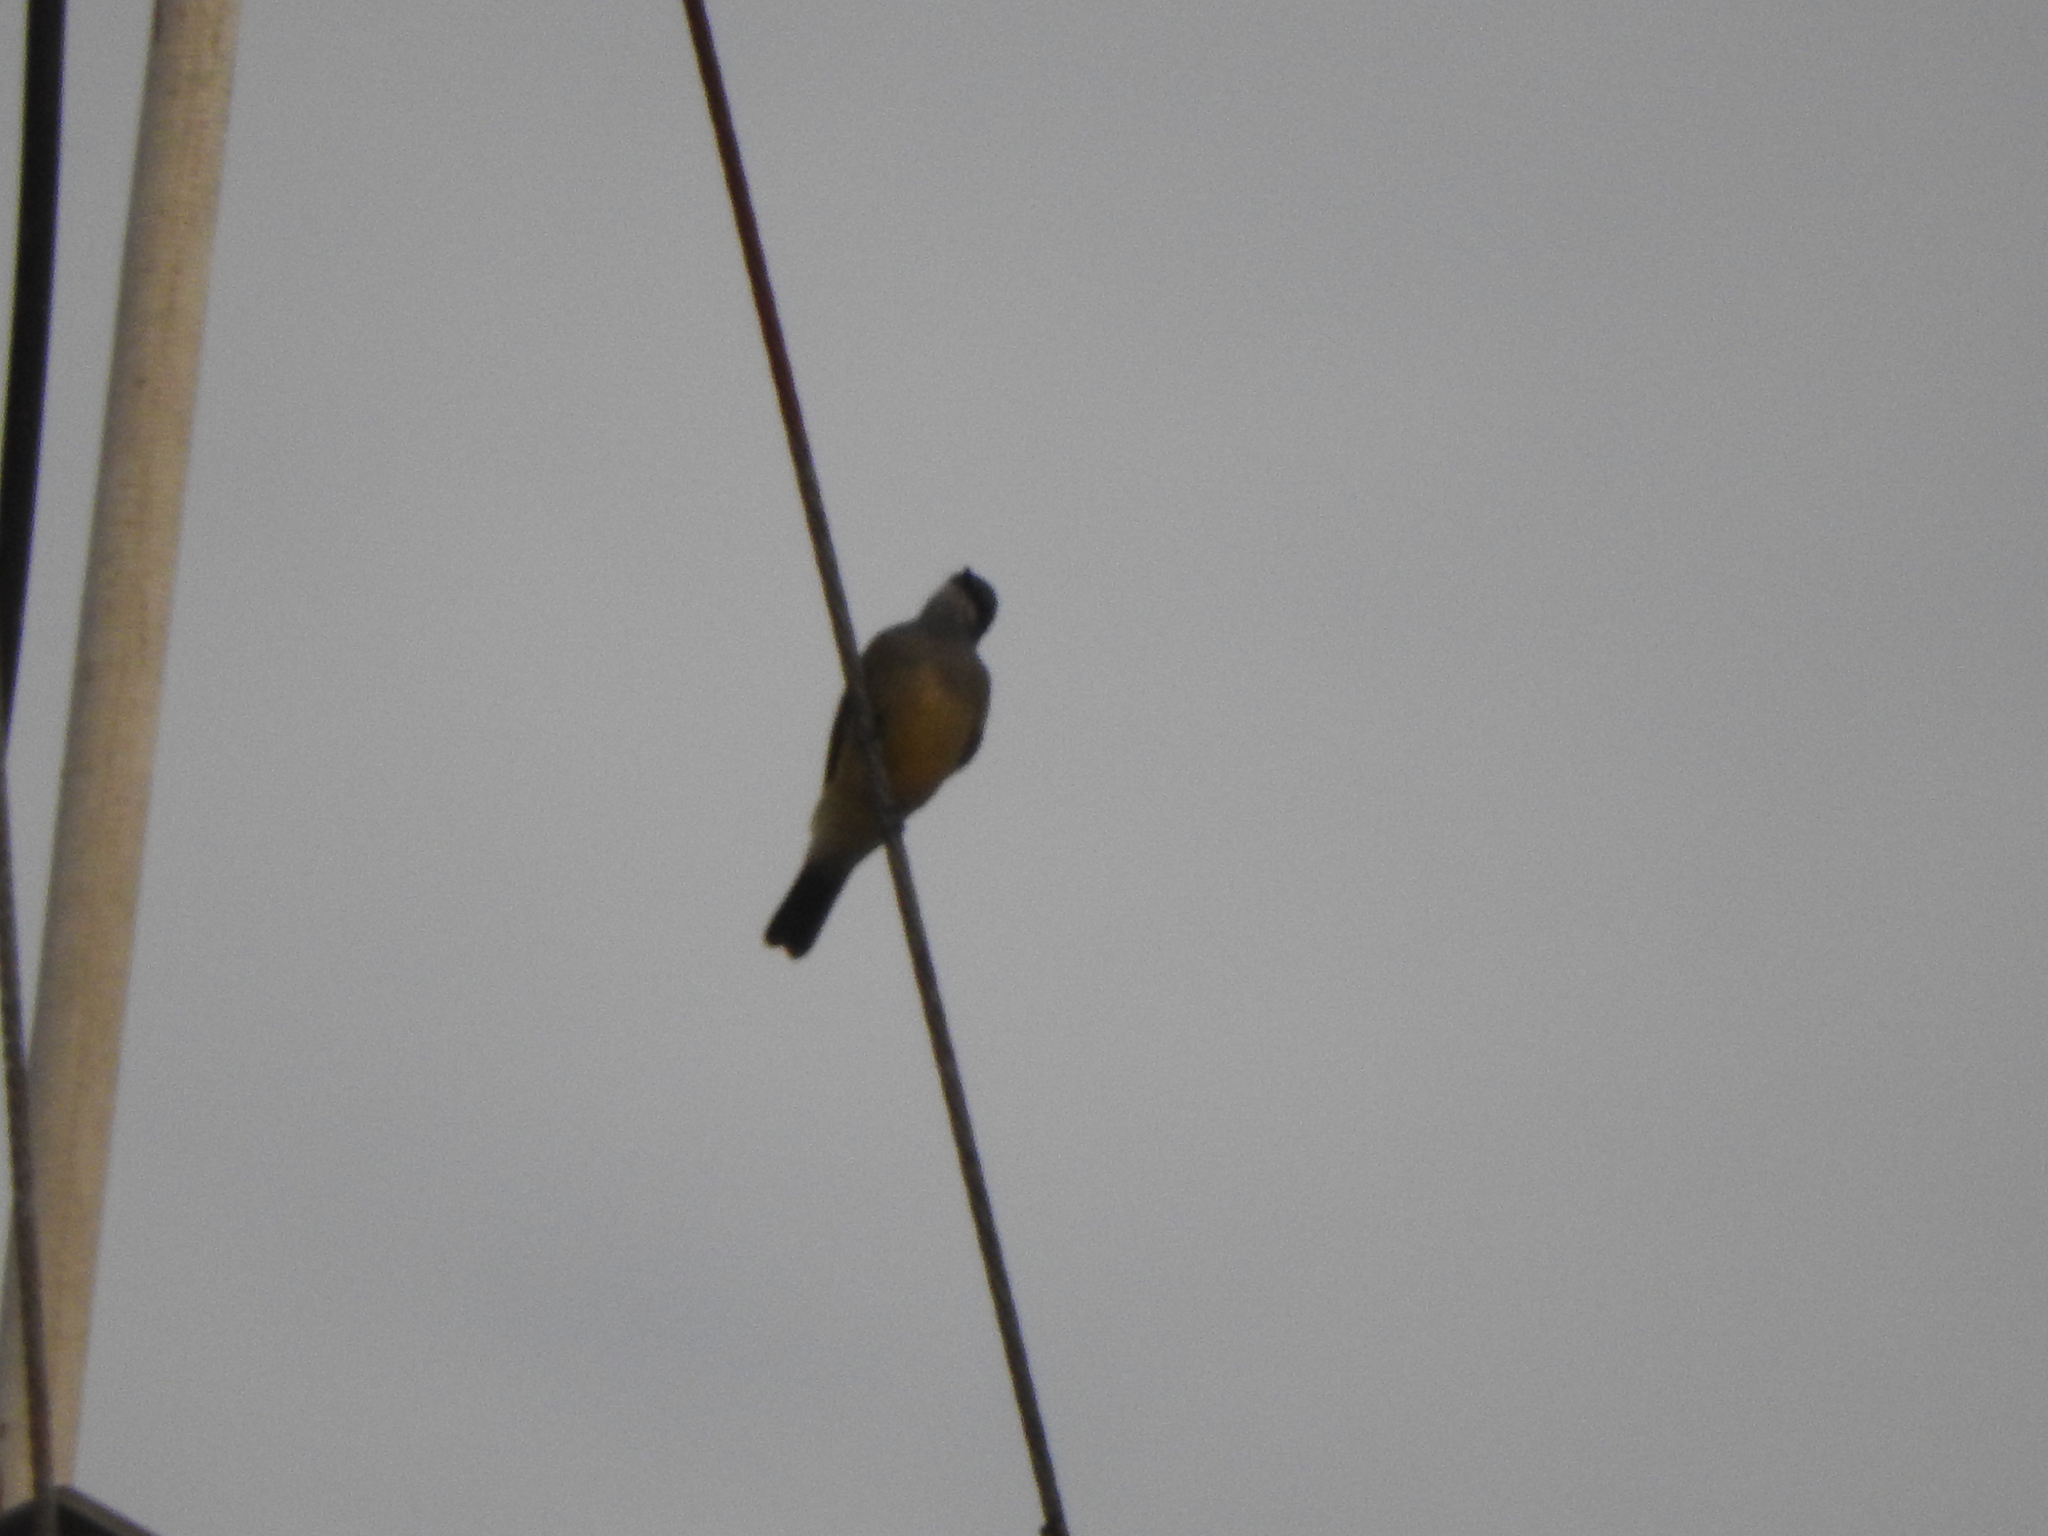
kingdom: Animalia
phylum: Chordata
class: Aves
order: Passeriformes
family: Tyrannidae
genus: Tyrannus
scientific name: Tyrannus vociferans
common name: Cassin's kingbird
